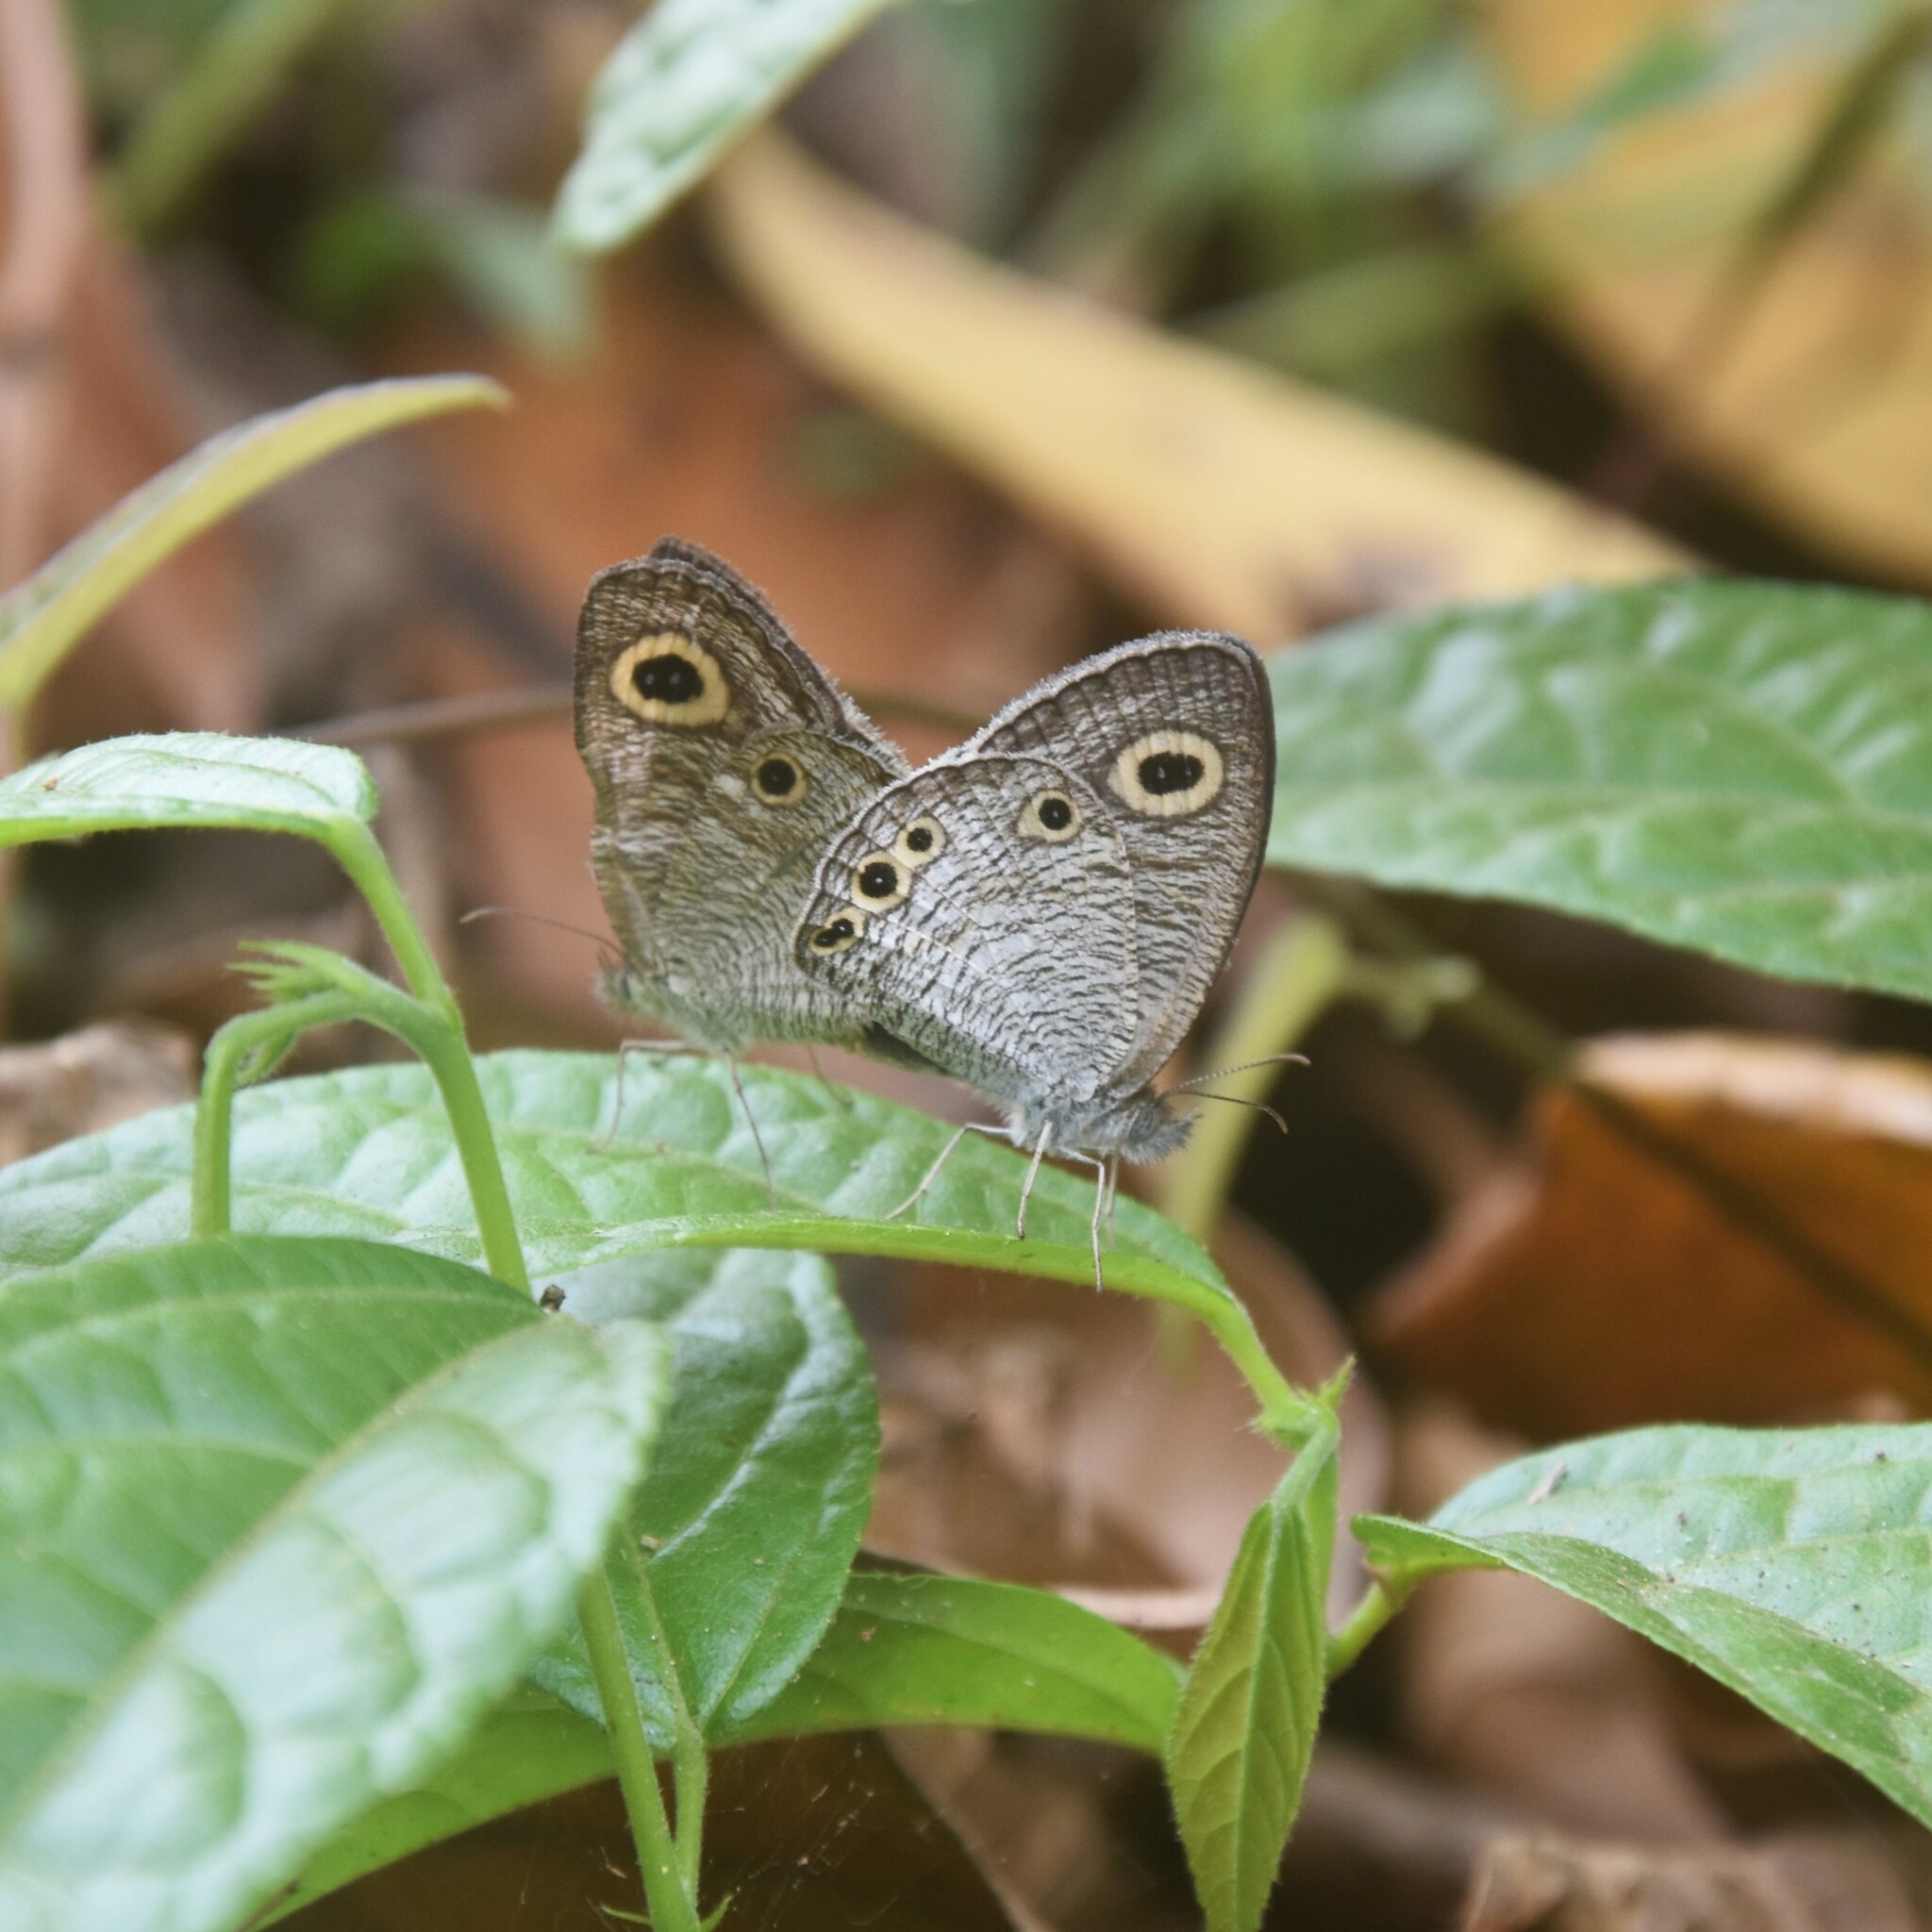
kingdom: Animalia
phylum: Arthropoda
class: Insecta
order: Lepidoptera
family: Nymphalidae
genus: Ypthima
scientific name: Ypthima huebneri
